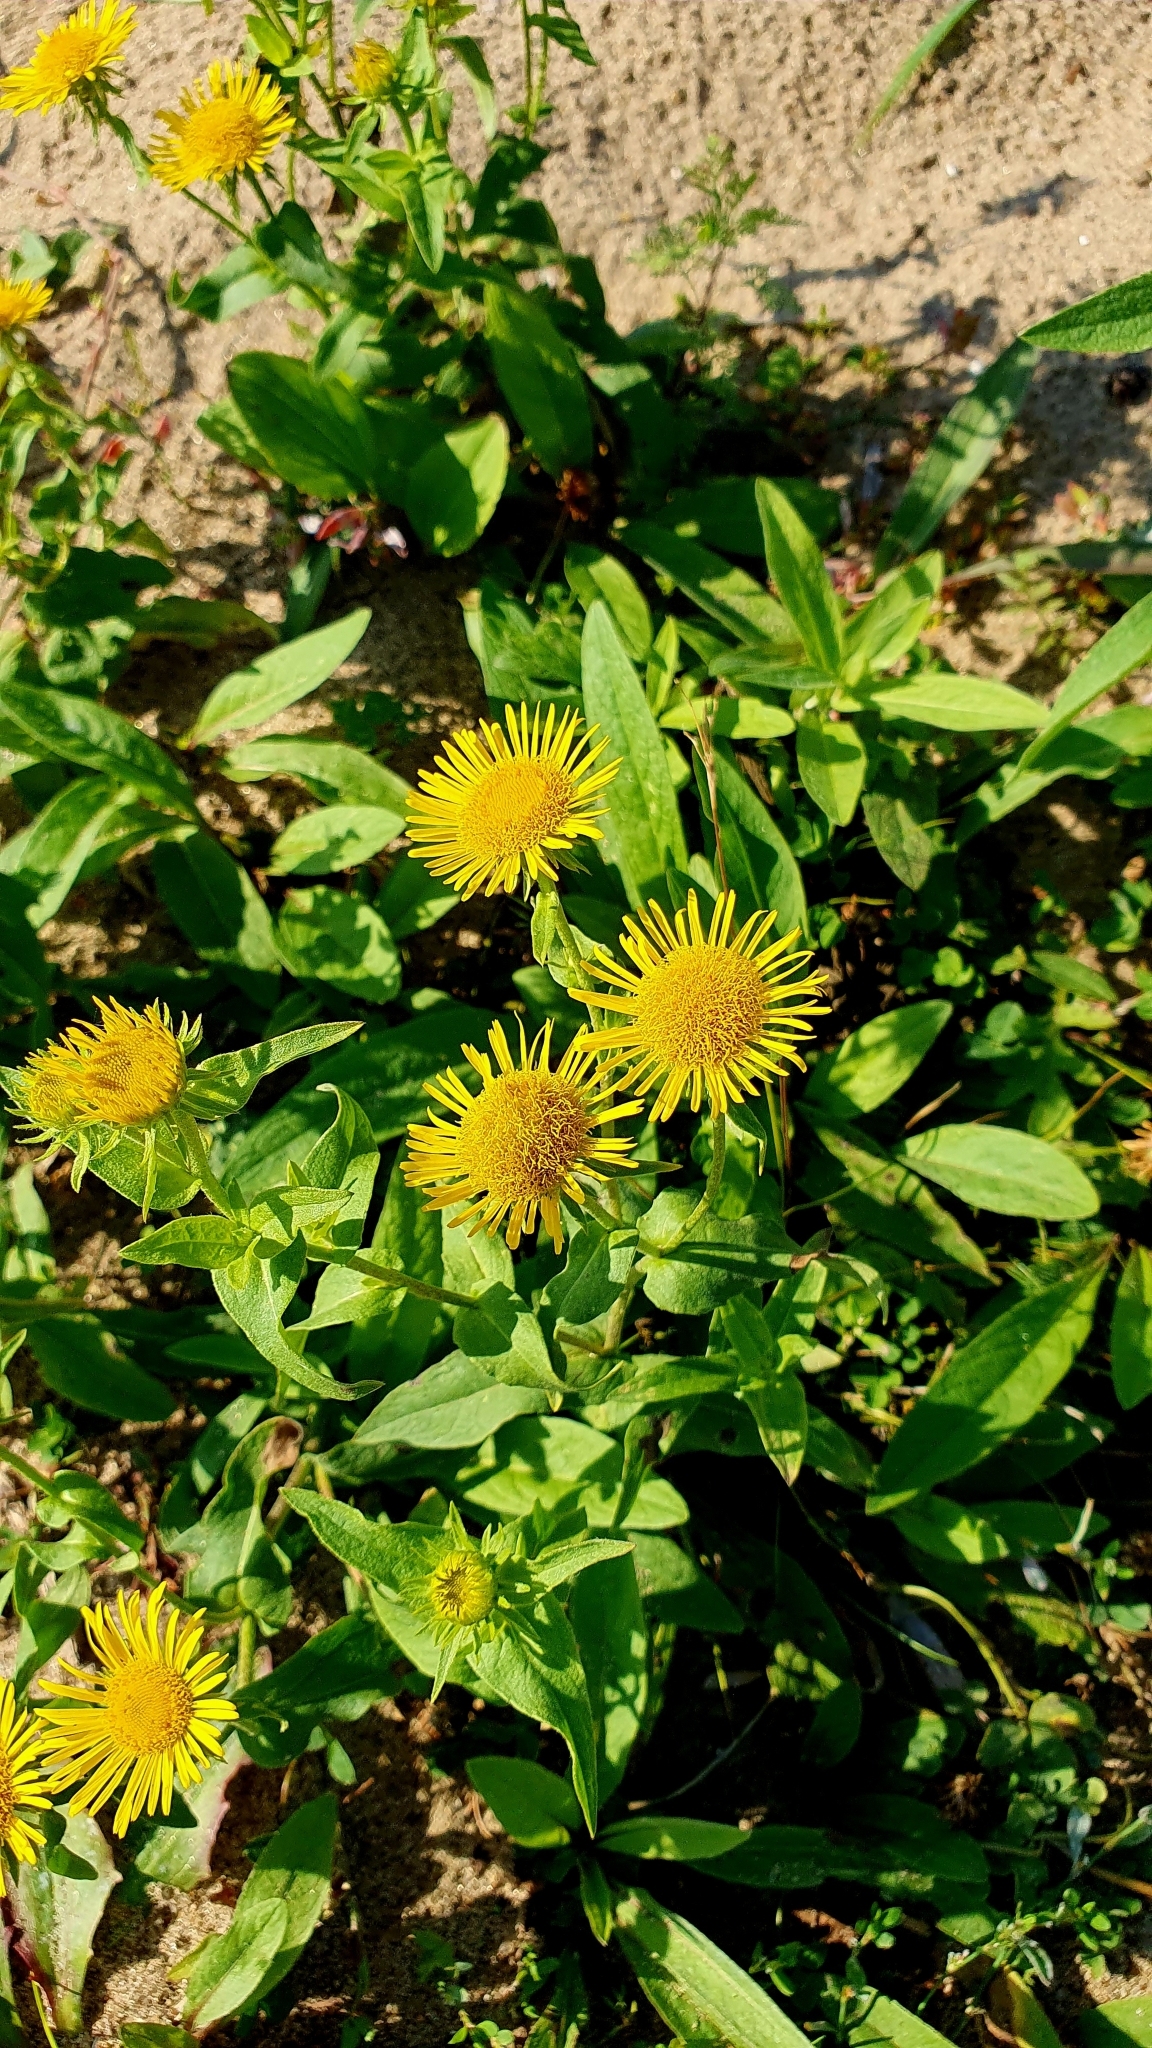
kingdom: Plantae
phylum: Tracheophyta
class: Magnoliopsida
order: Asterales
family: Asteraceae
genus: Pentanema
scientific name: Pentanema britannicum
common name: British elecampane
